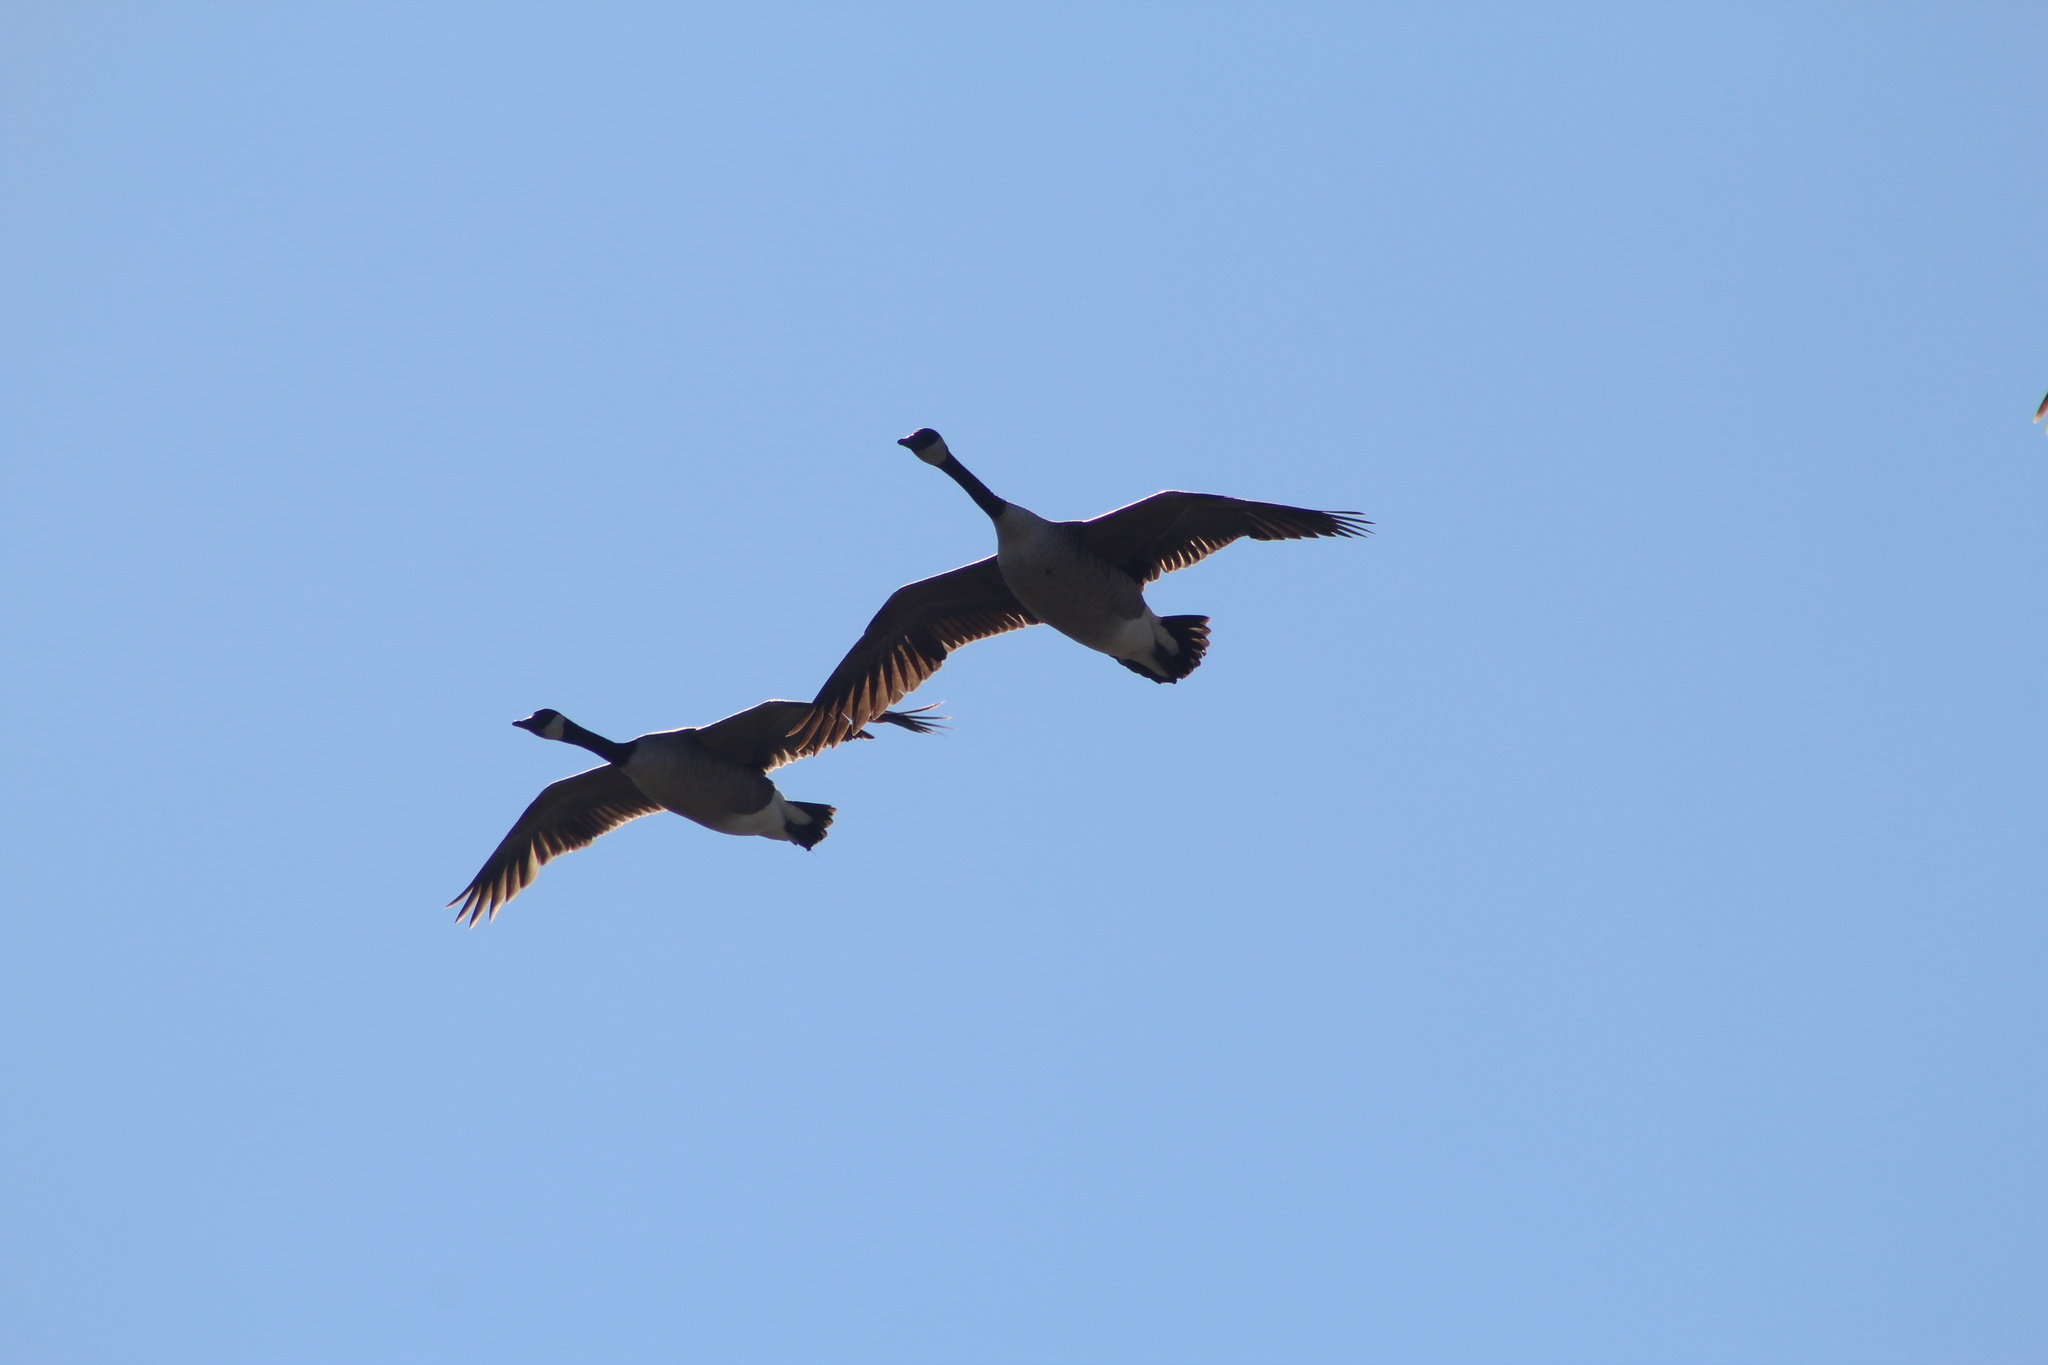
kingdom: Animalia
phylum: Chordata
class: Aves
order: Anseriformes
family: Anatidae
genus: Branta
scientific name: Branta canadensis
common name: Canada goose
